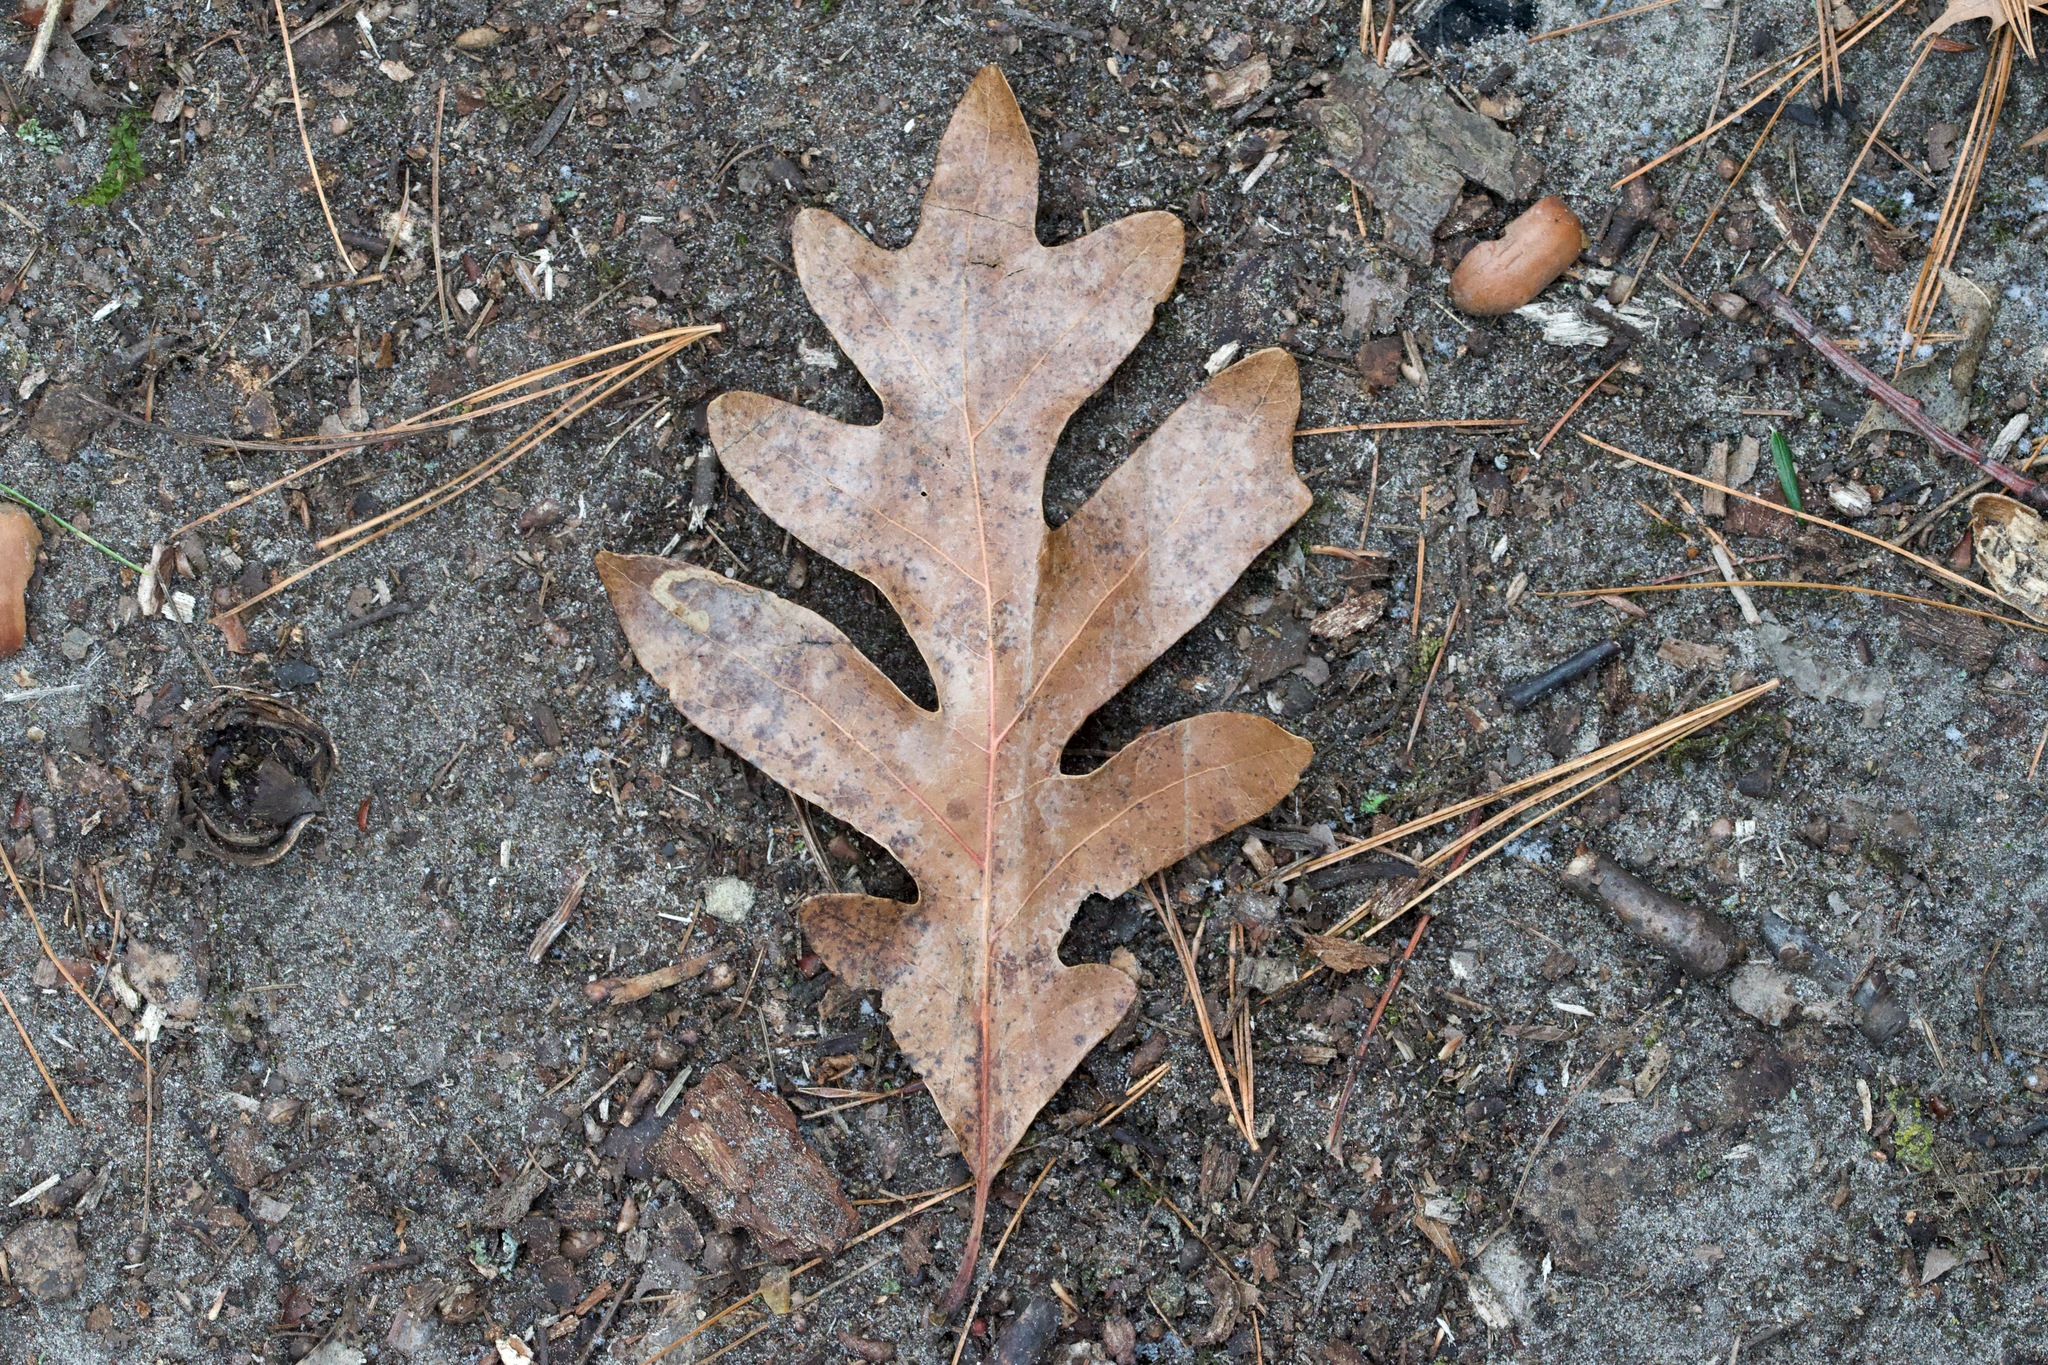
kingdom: Plantae
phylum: Tracheophyta
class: Magnoliopsida
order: Fagales
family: Fagaceae
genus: Quercus
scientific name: Quercus alba
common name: White oak
